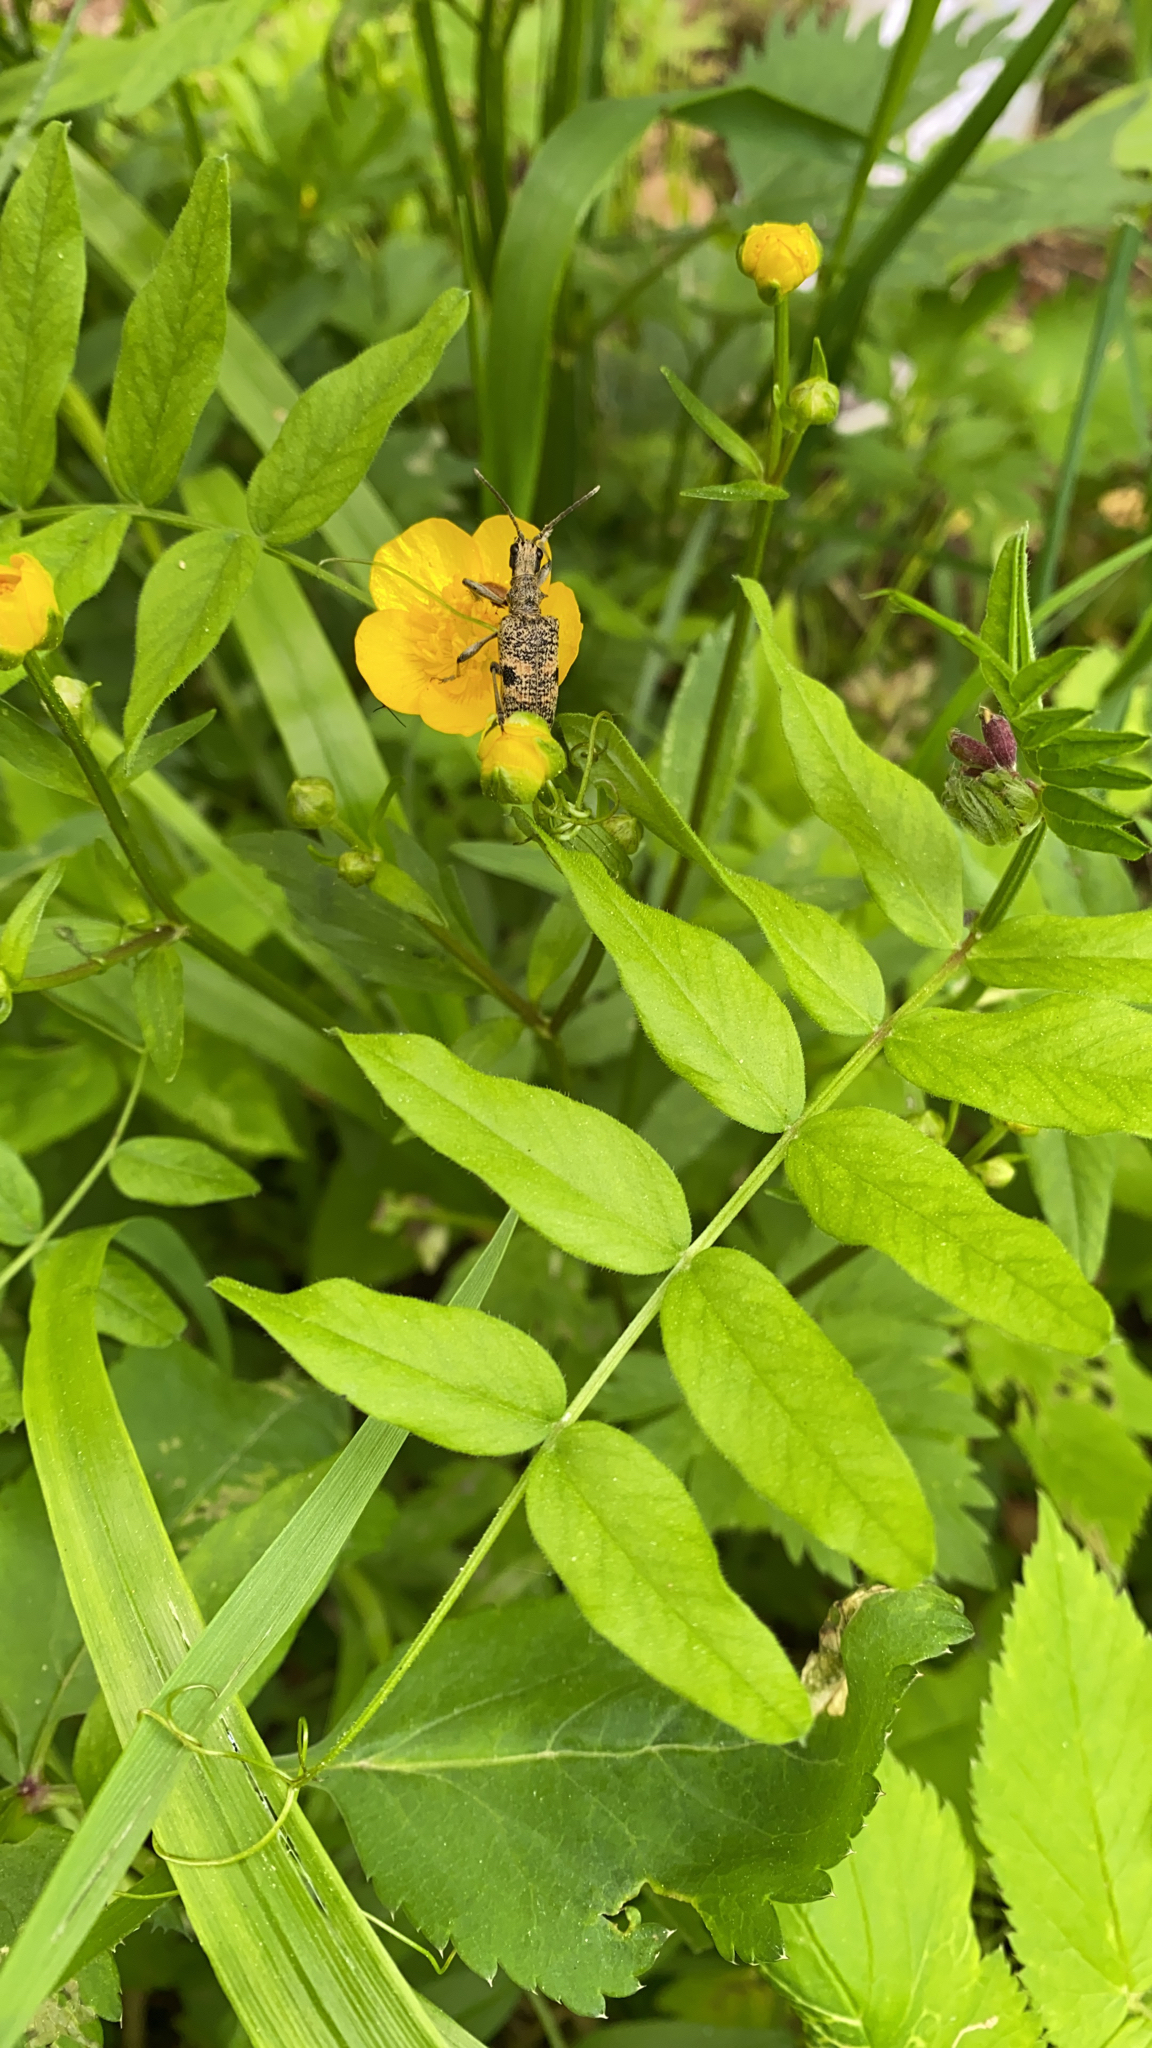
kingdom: Animalia
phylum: Arthropoda
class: Insecta
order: Coleoptera
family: Cerambycidae
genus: Rhagium
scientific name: Rhagium mordax
